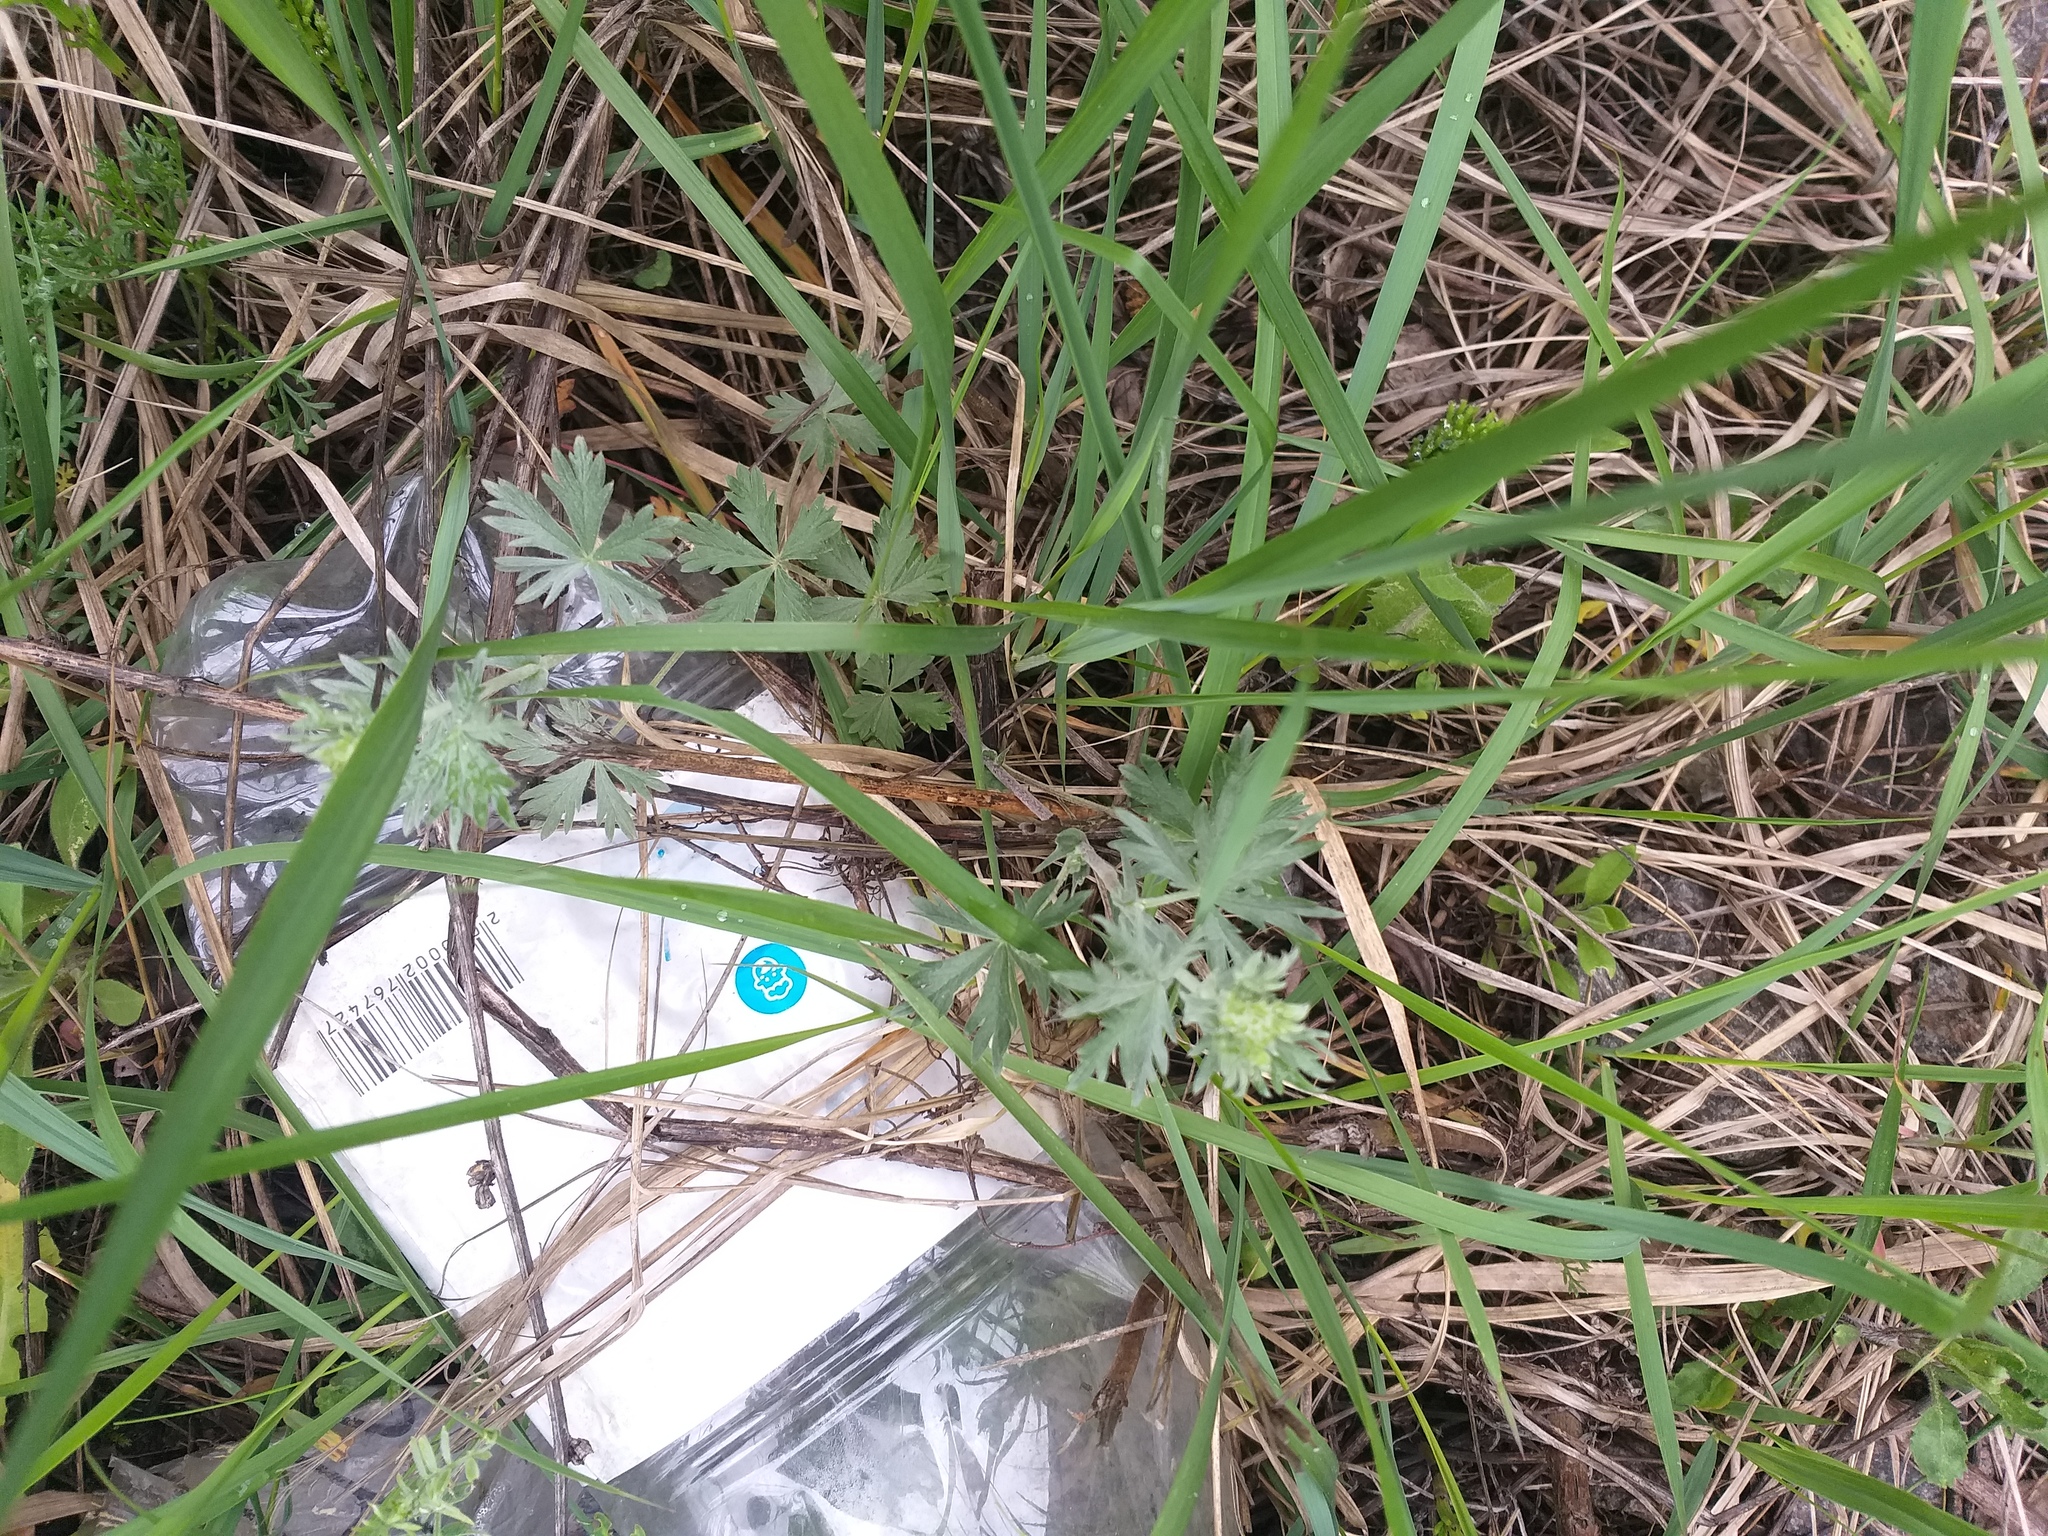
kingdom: Plantae
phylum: Tracheophyta
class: Magnoliopsida
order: Rosales
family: Rosaceae
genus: Potentilla
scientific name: Potentilla argentea
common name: Hoary cinquefoil
